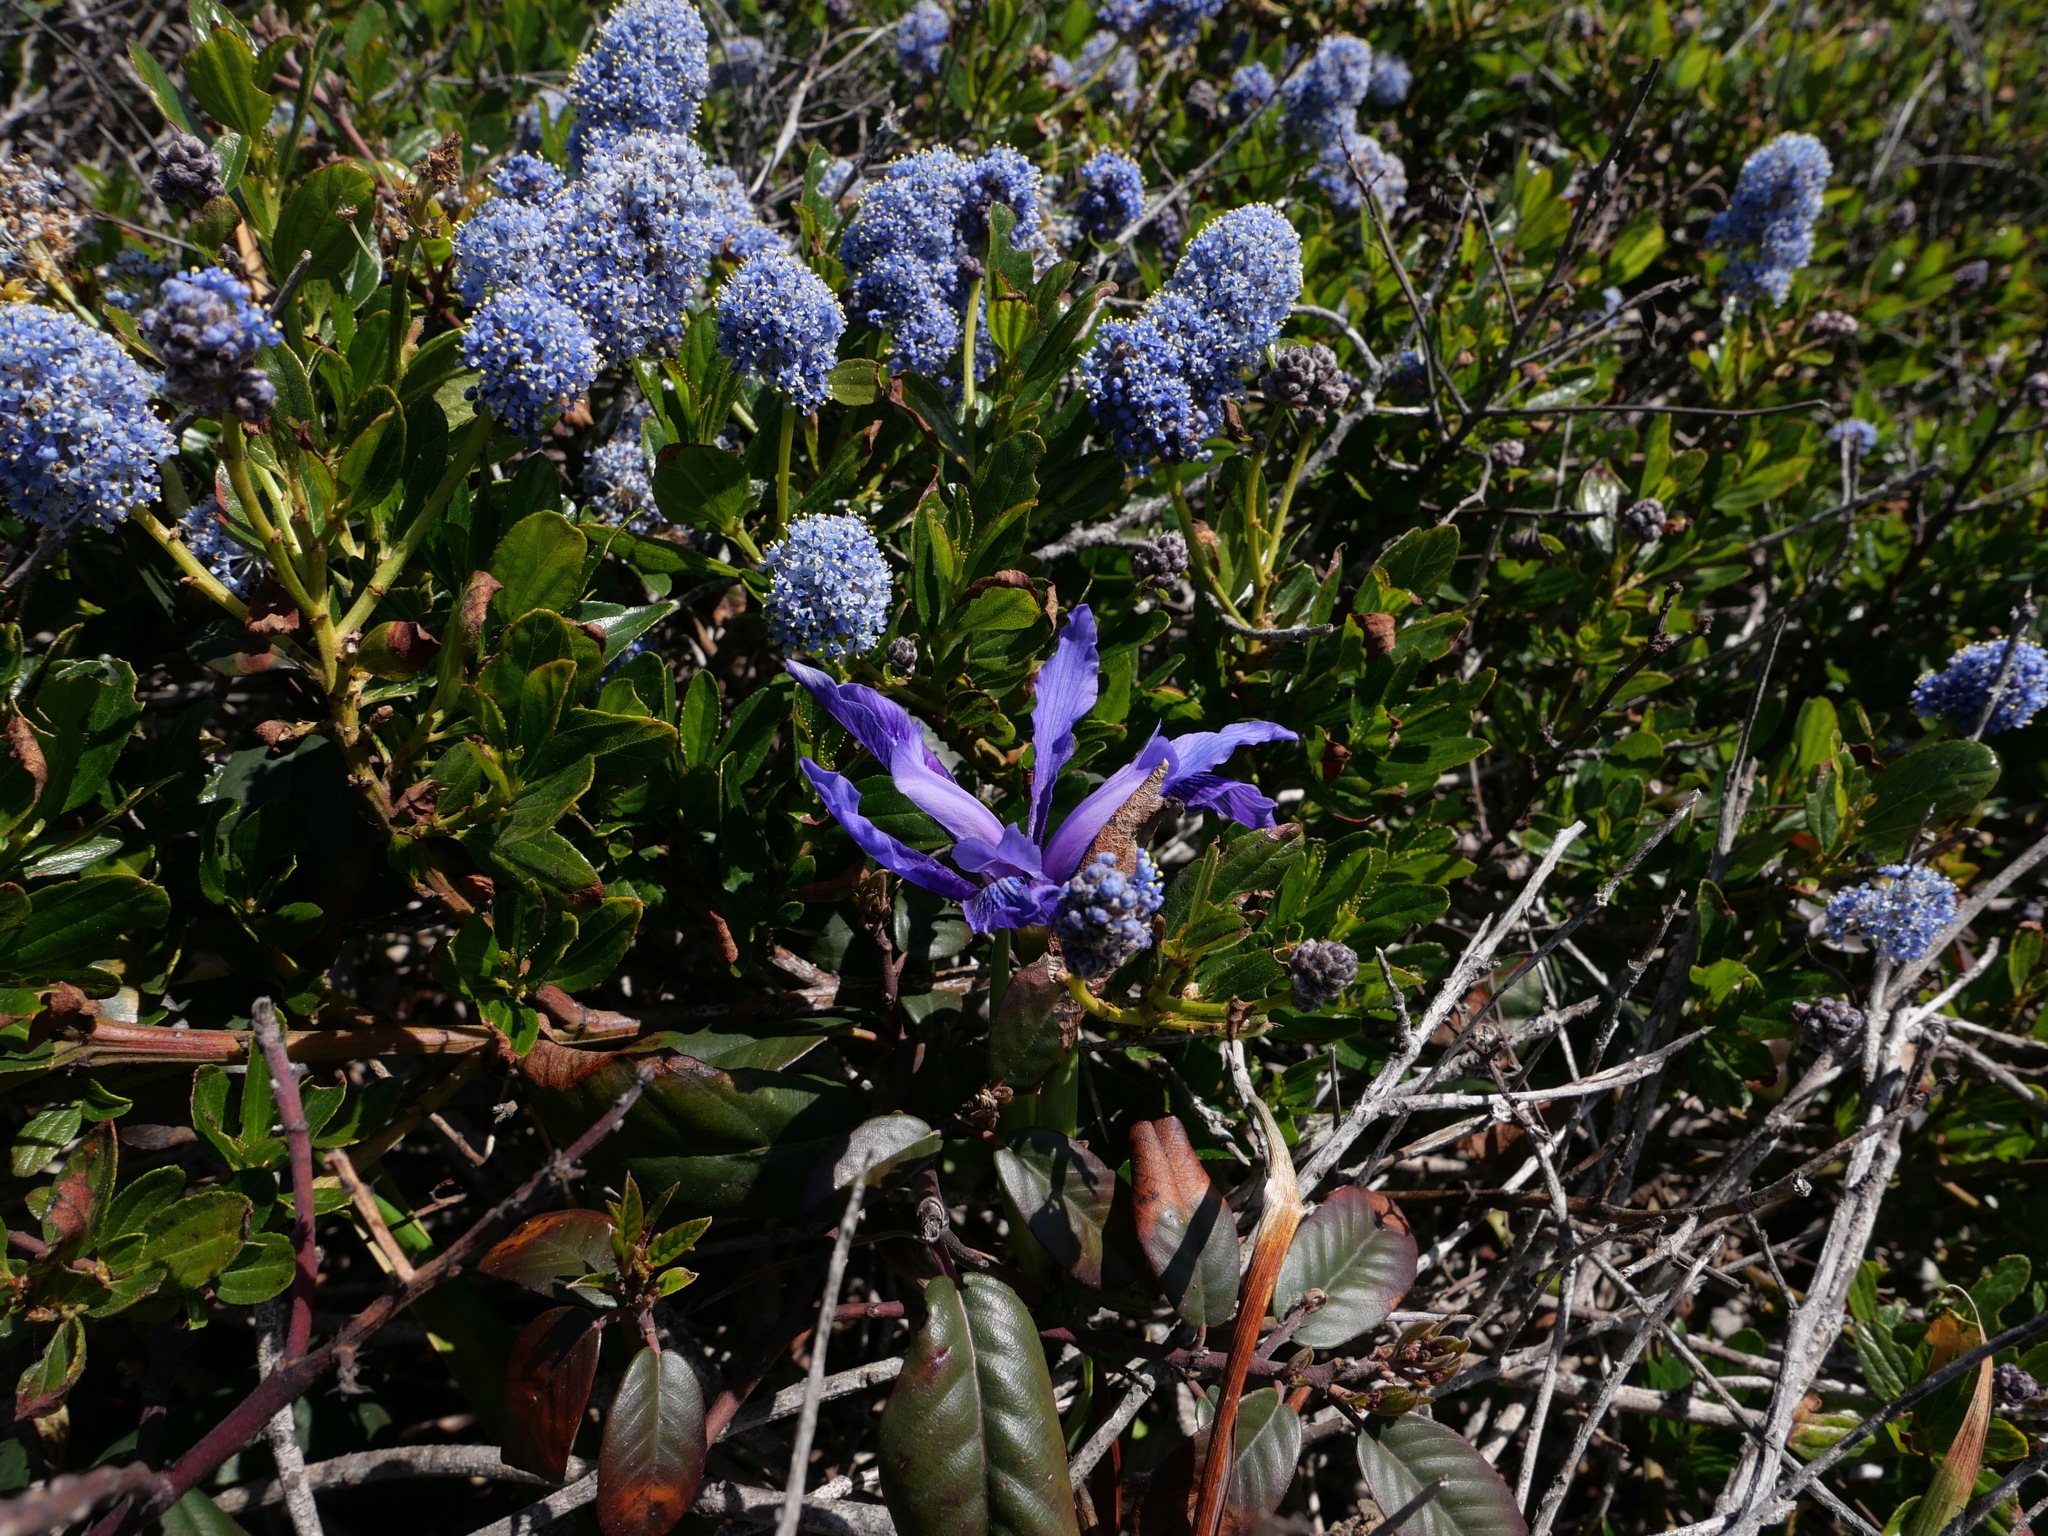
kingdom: Plantae
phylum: Tracheophyta
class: Liliopsida
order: Asparagales
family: Iridaceae
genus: Iris
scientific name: Iris douglasiana
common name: Marin iris
